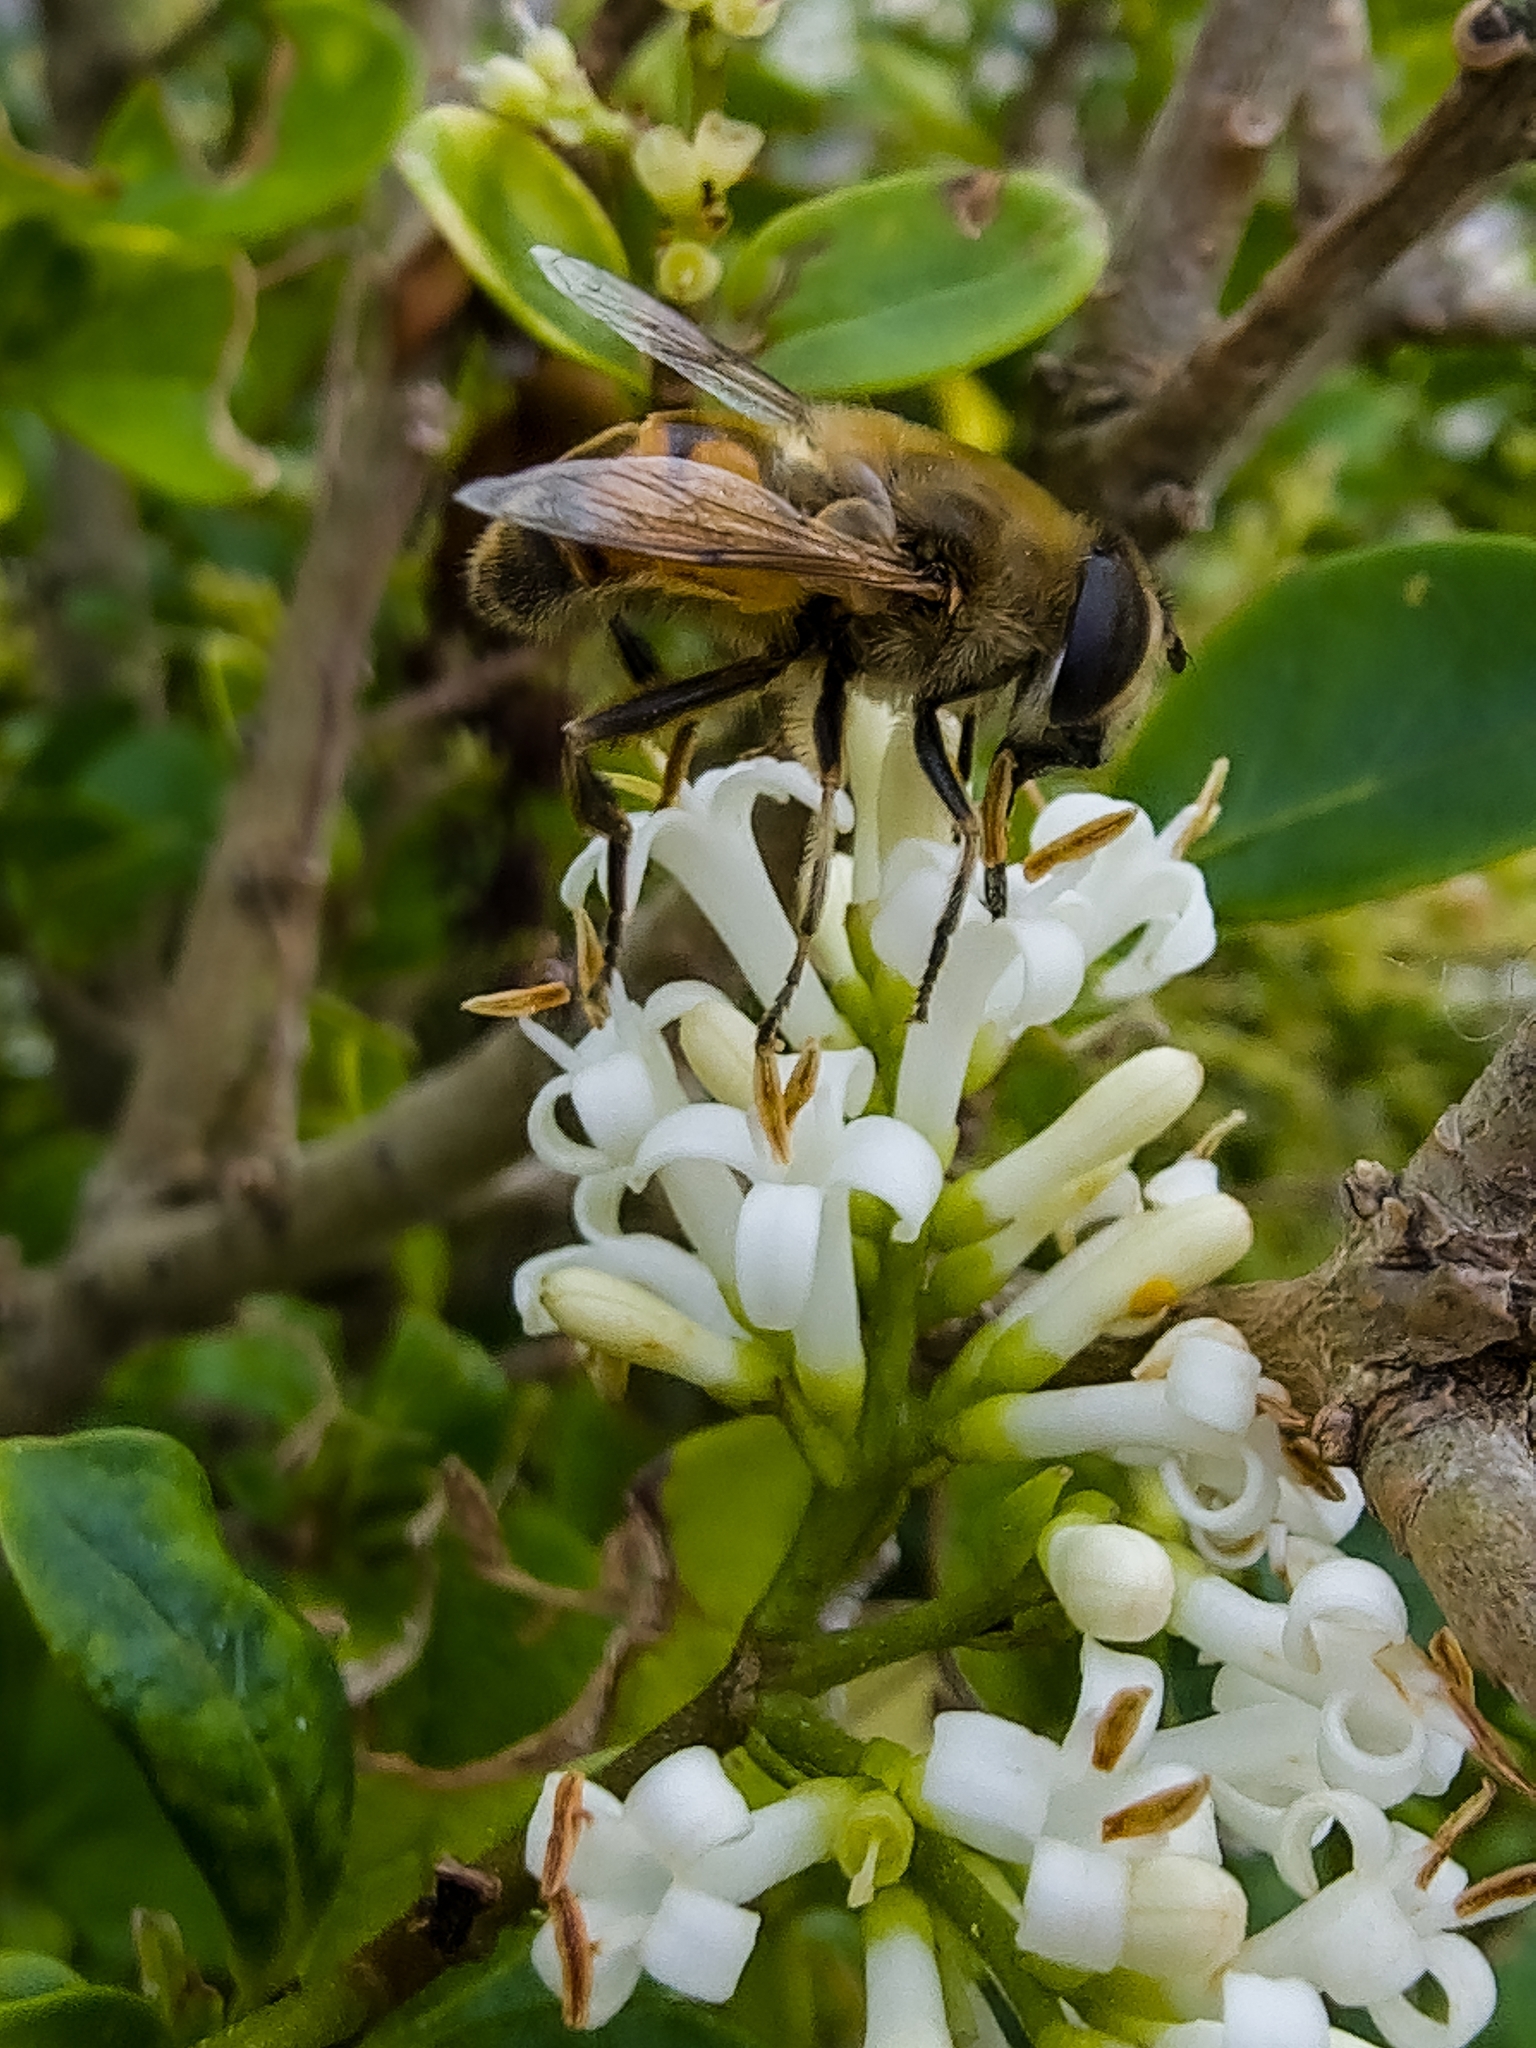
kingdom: Animalia
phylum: Arthropoda
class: Insecta
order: Diptera
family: Syrphidae
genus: Eristalis
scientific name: Eristalis tenax
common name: Drone fly
